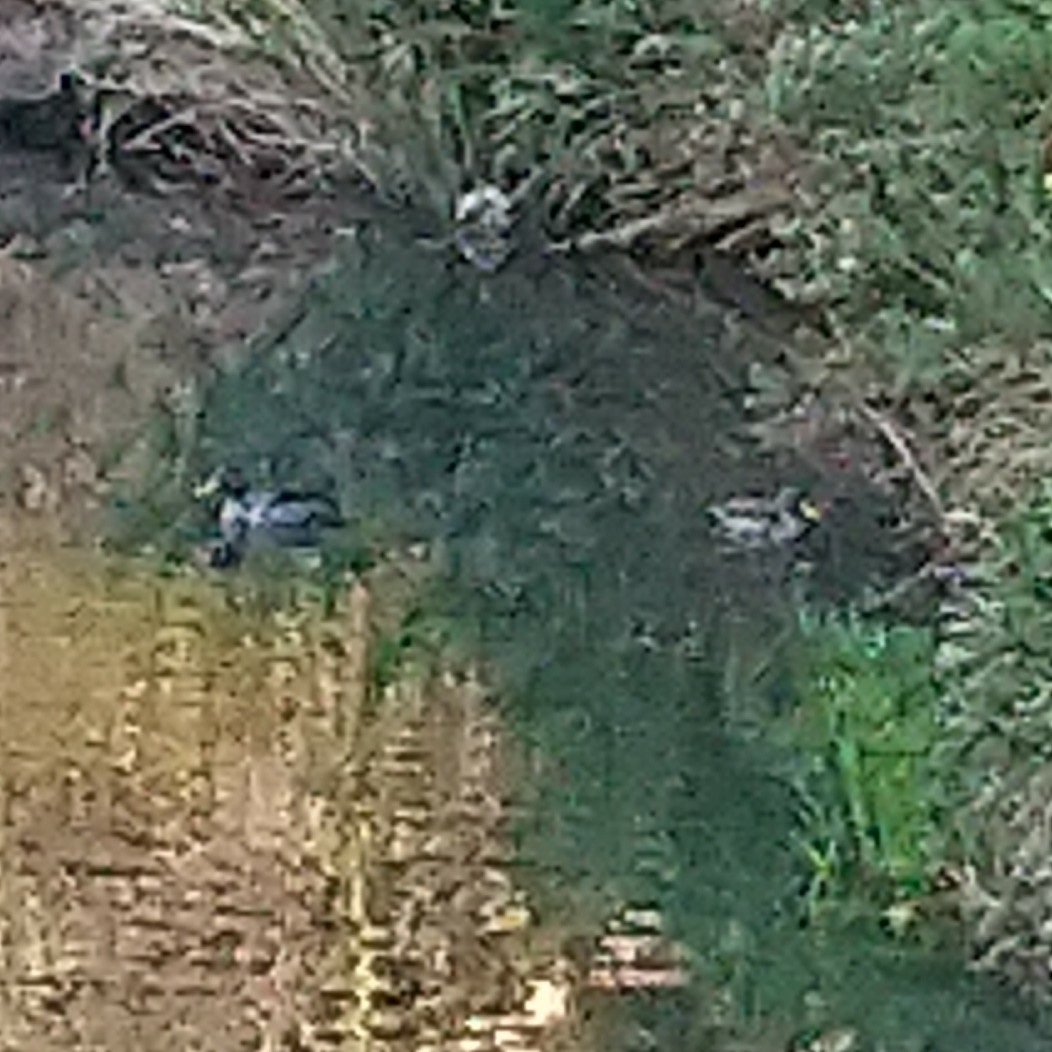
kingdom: Animalia
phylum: Chordata
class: Aves
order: Anseriformes
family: Anatidae
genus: Anas
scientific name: Anas undulata
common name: Yellow-billed duck
